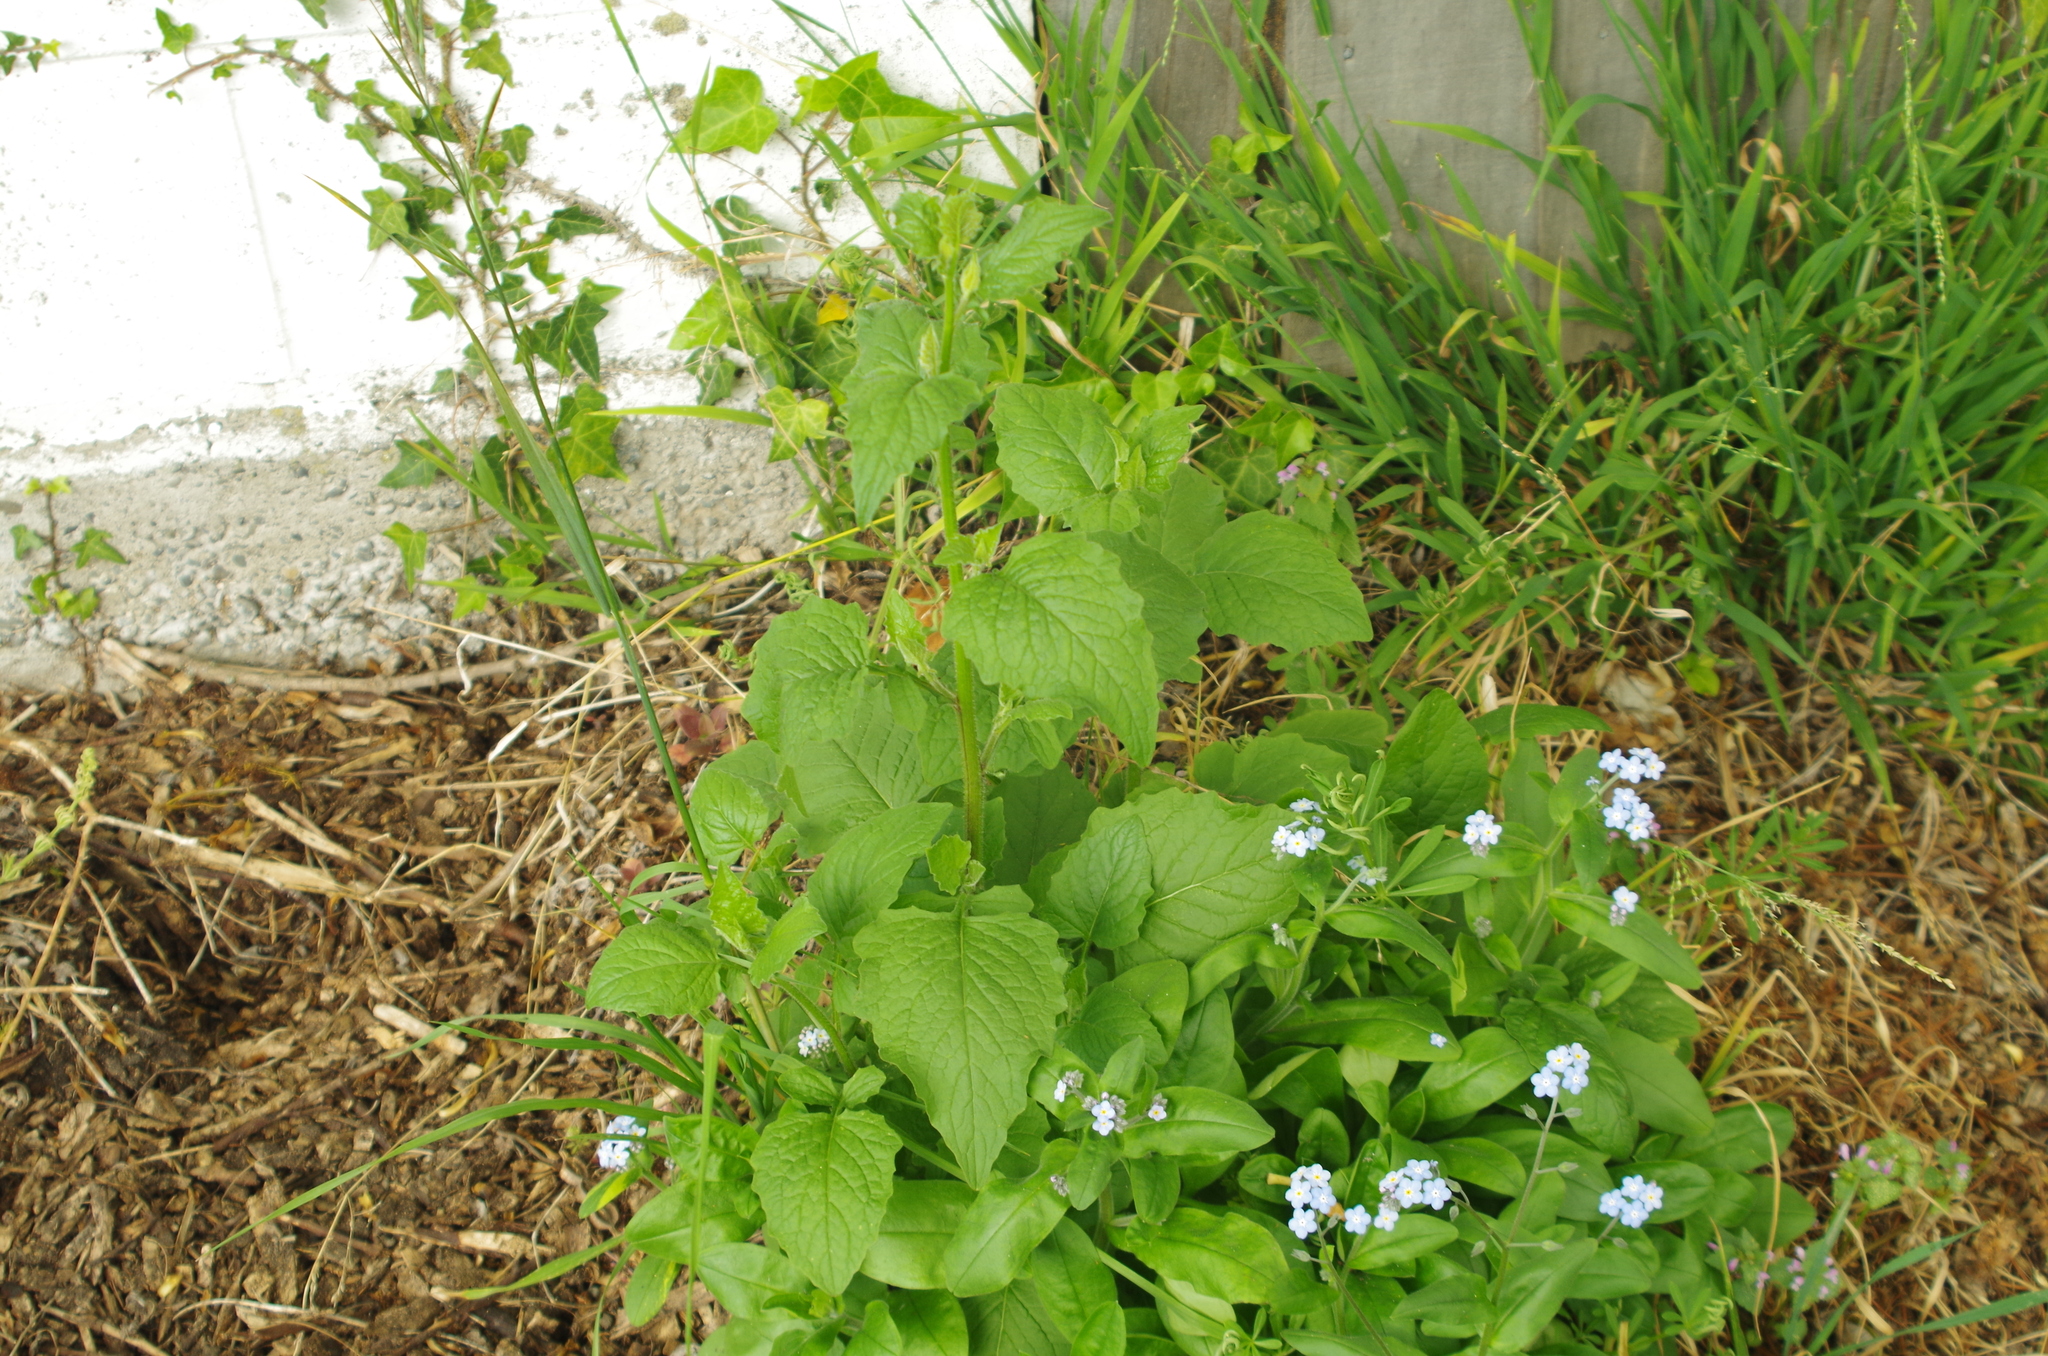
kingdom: Plantae
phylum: Tracheophyta
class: Magnoliopsida
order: Asterales
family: Asteraceae
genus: Lapsana
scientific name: Lapsana communis
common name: Nipplewort
